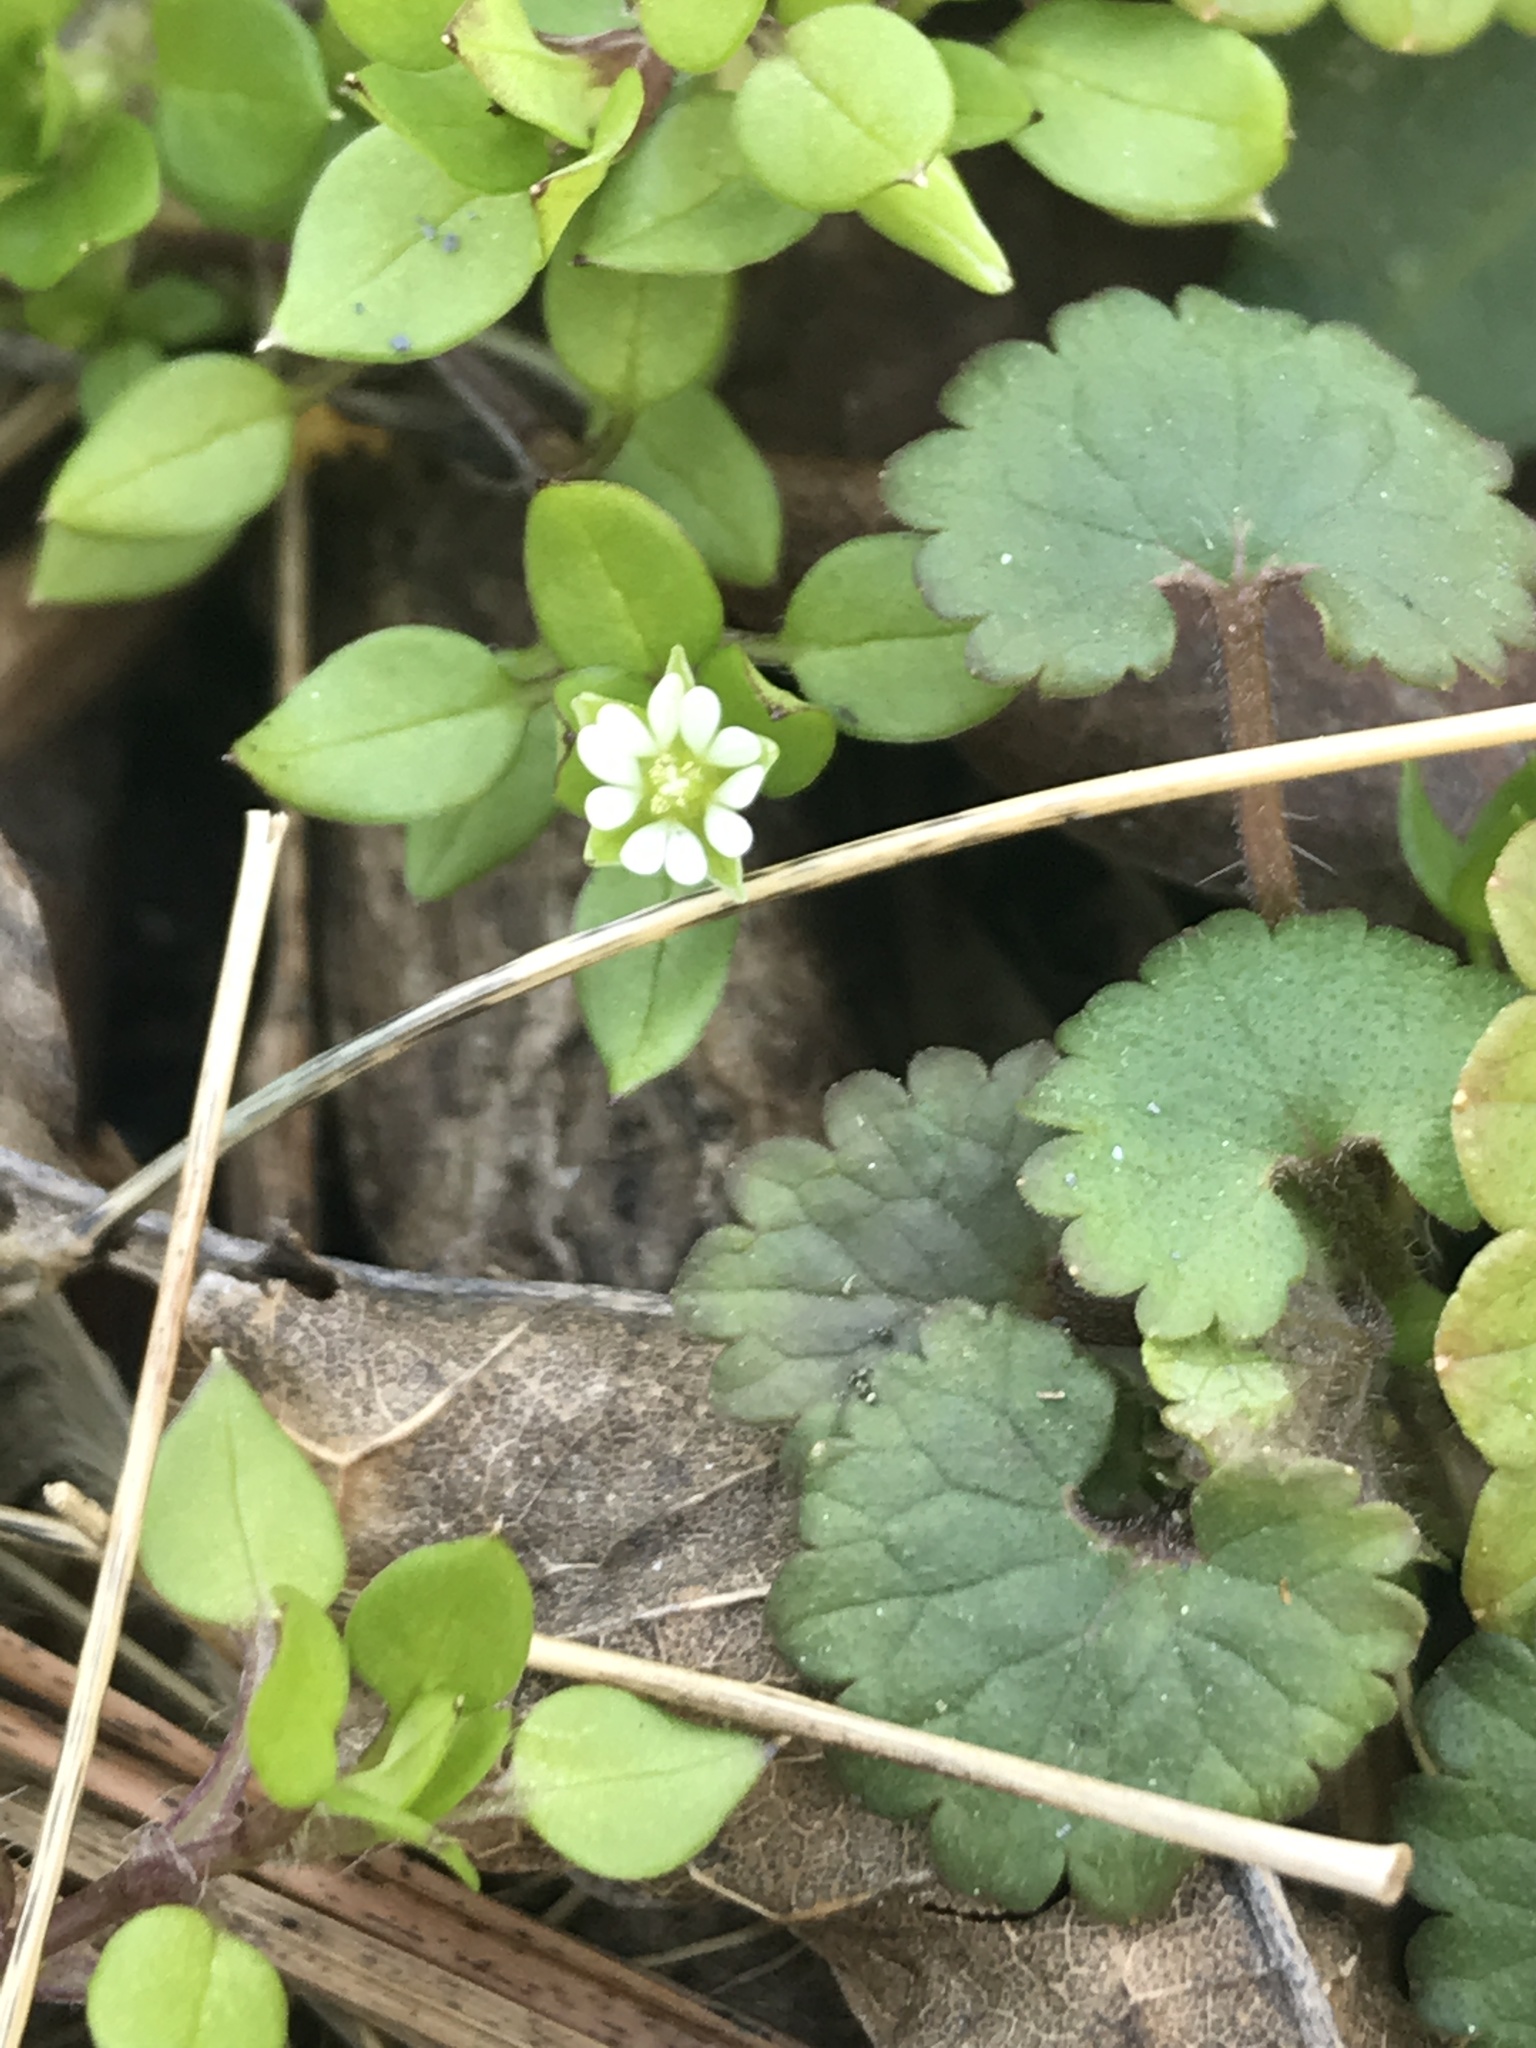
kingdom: Plantae
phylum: Tracheophyta
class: Magnoliopsida
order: Caryophyllales
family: Caryophyllaceae
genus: Stellaria
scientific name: Stellaria media
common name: Common chickweed
